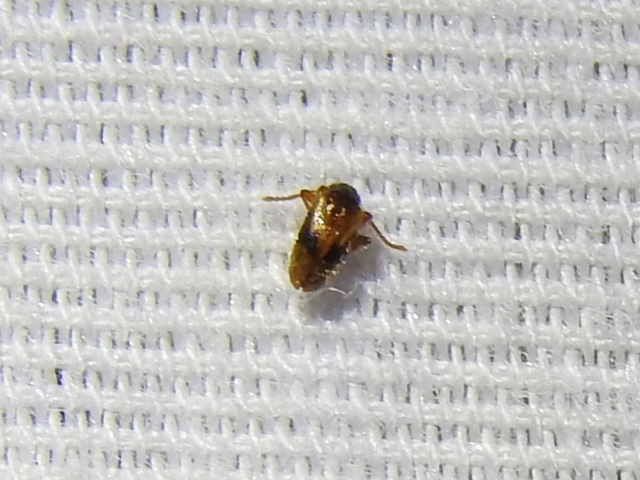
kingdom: Animalia
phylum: Arthropoda
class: Insecta
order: Coleoptera
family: Aderidae
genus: Zonantes
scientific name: Zonantes nubifer
